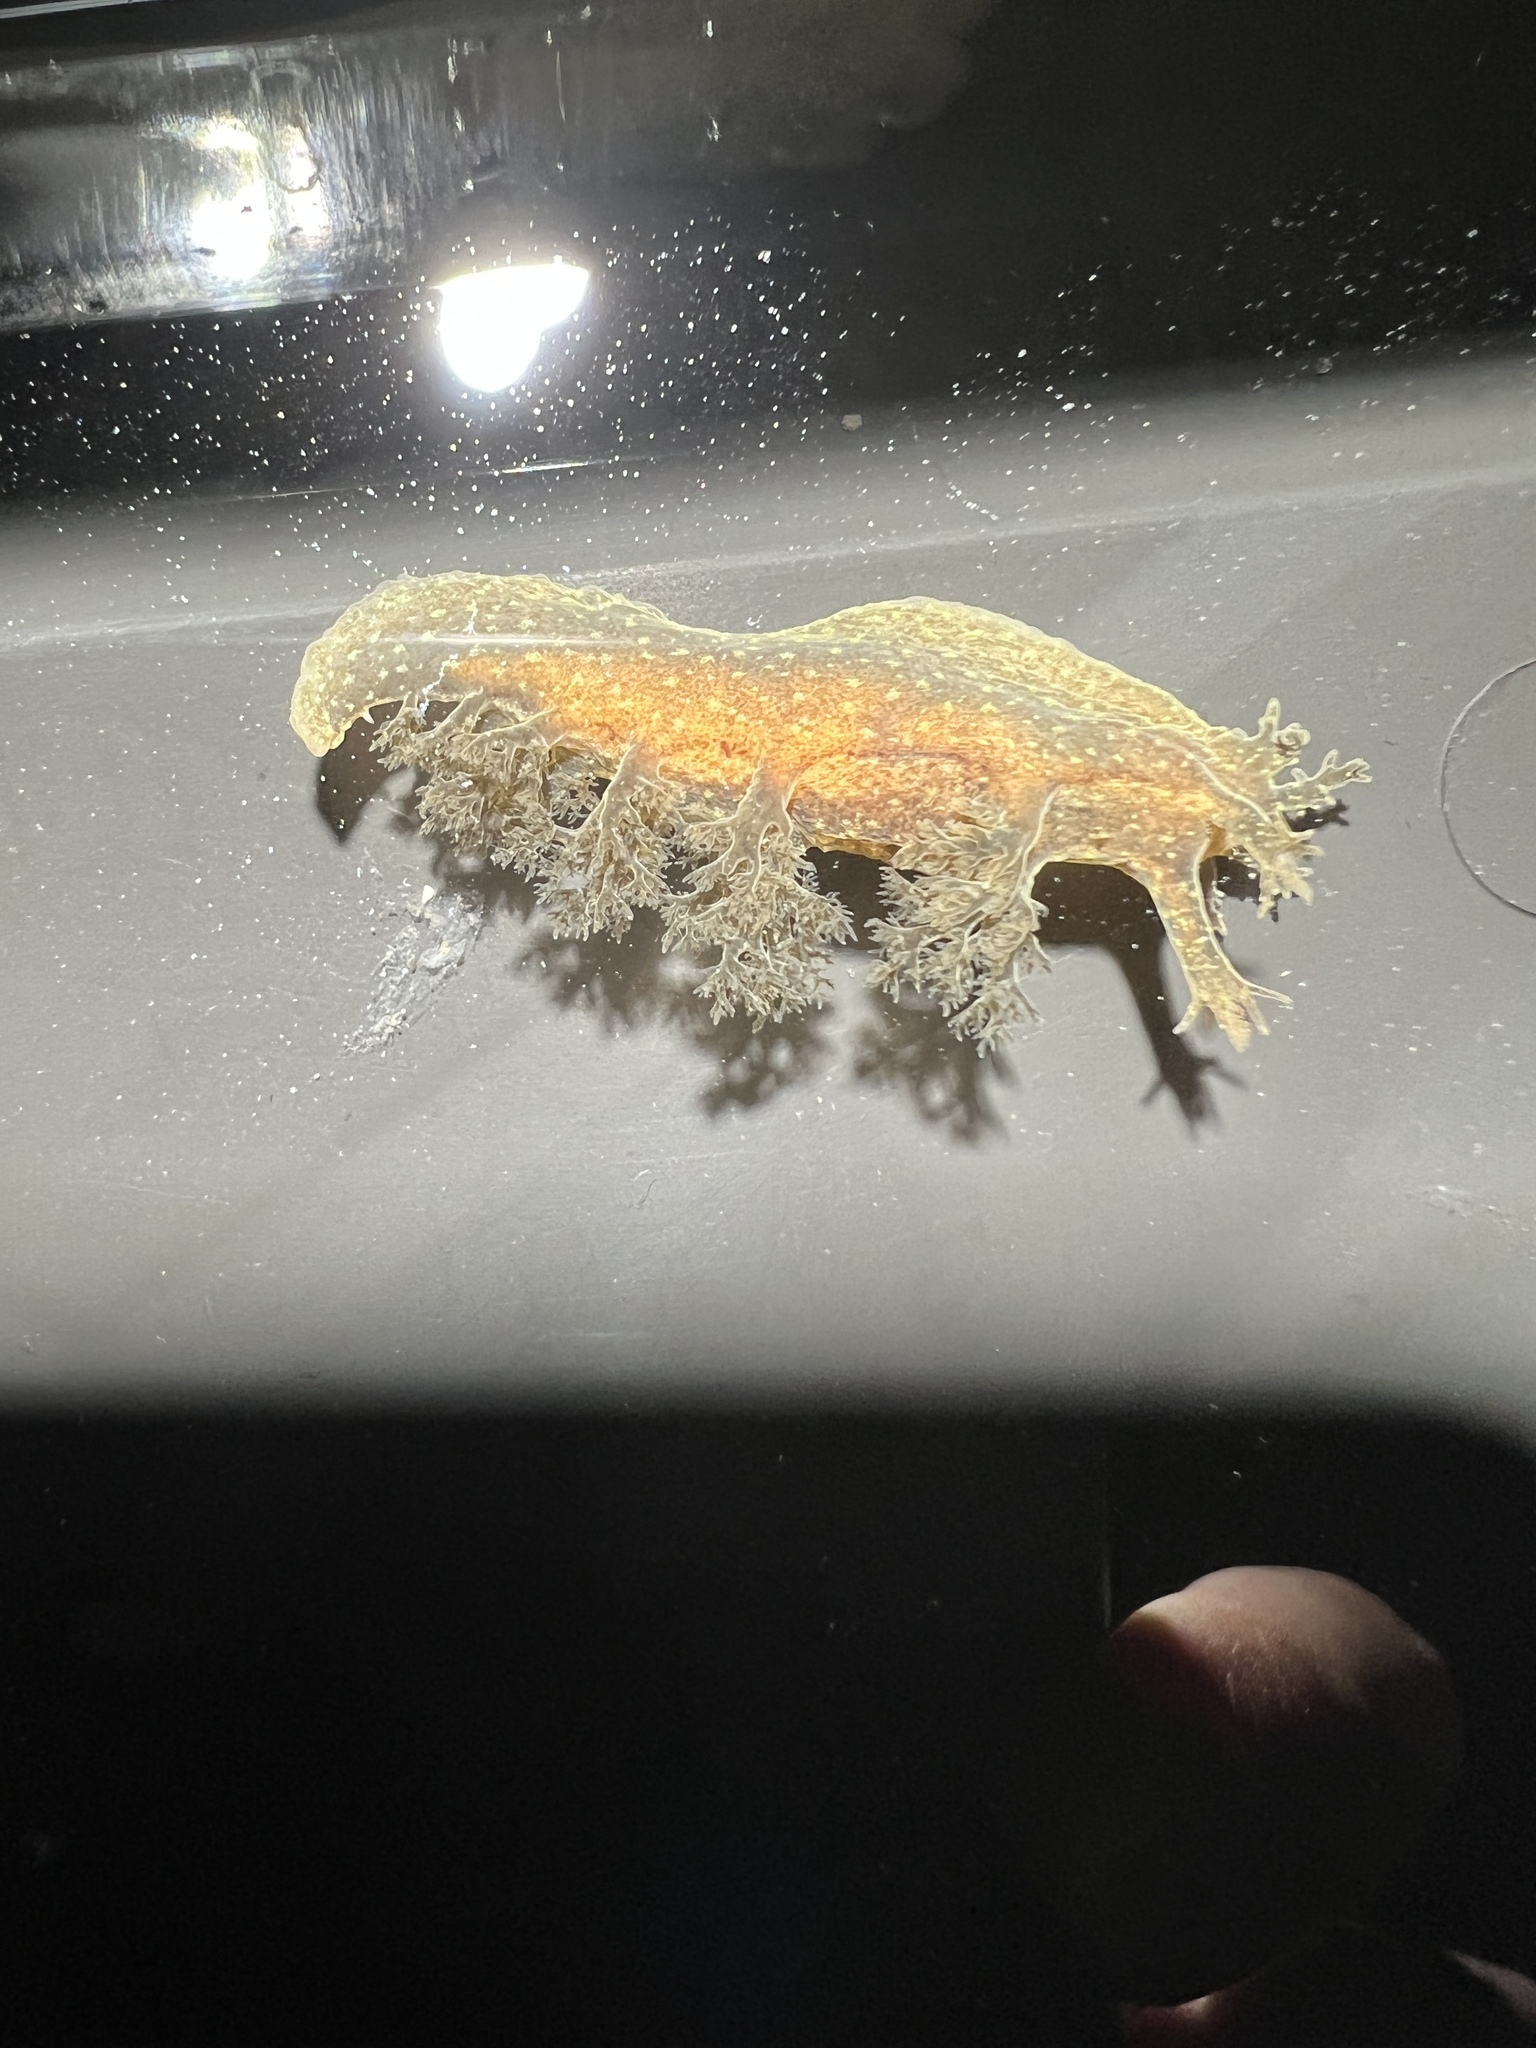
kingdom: Animalia
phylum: Mollusca
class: Gastropoda
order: Nudibranchia
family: Dendronotidae
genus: Dendronotus
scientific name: Dendronotus subramosus
